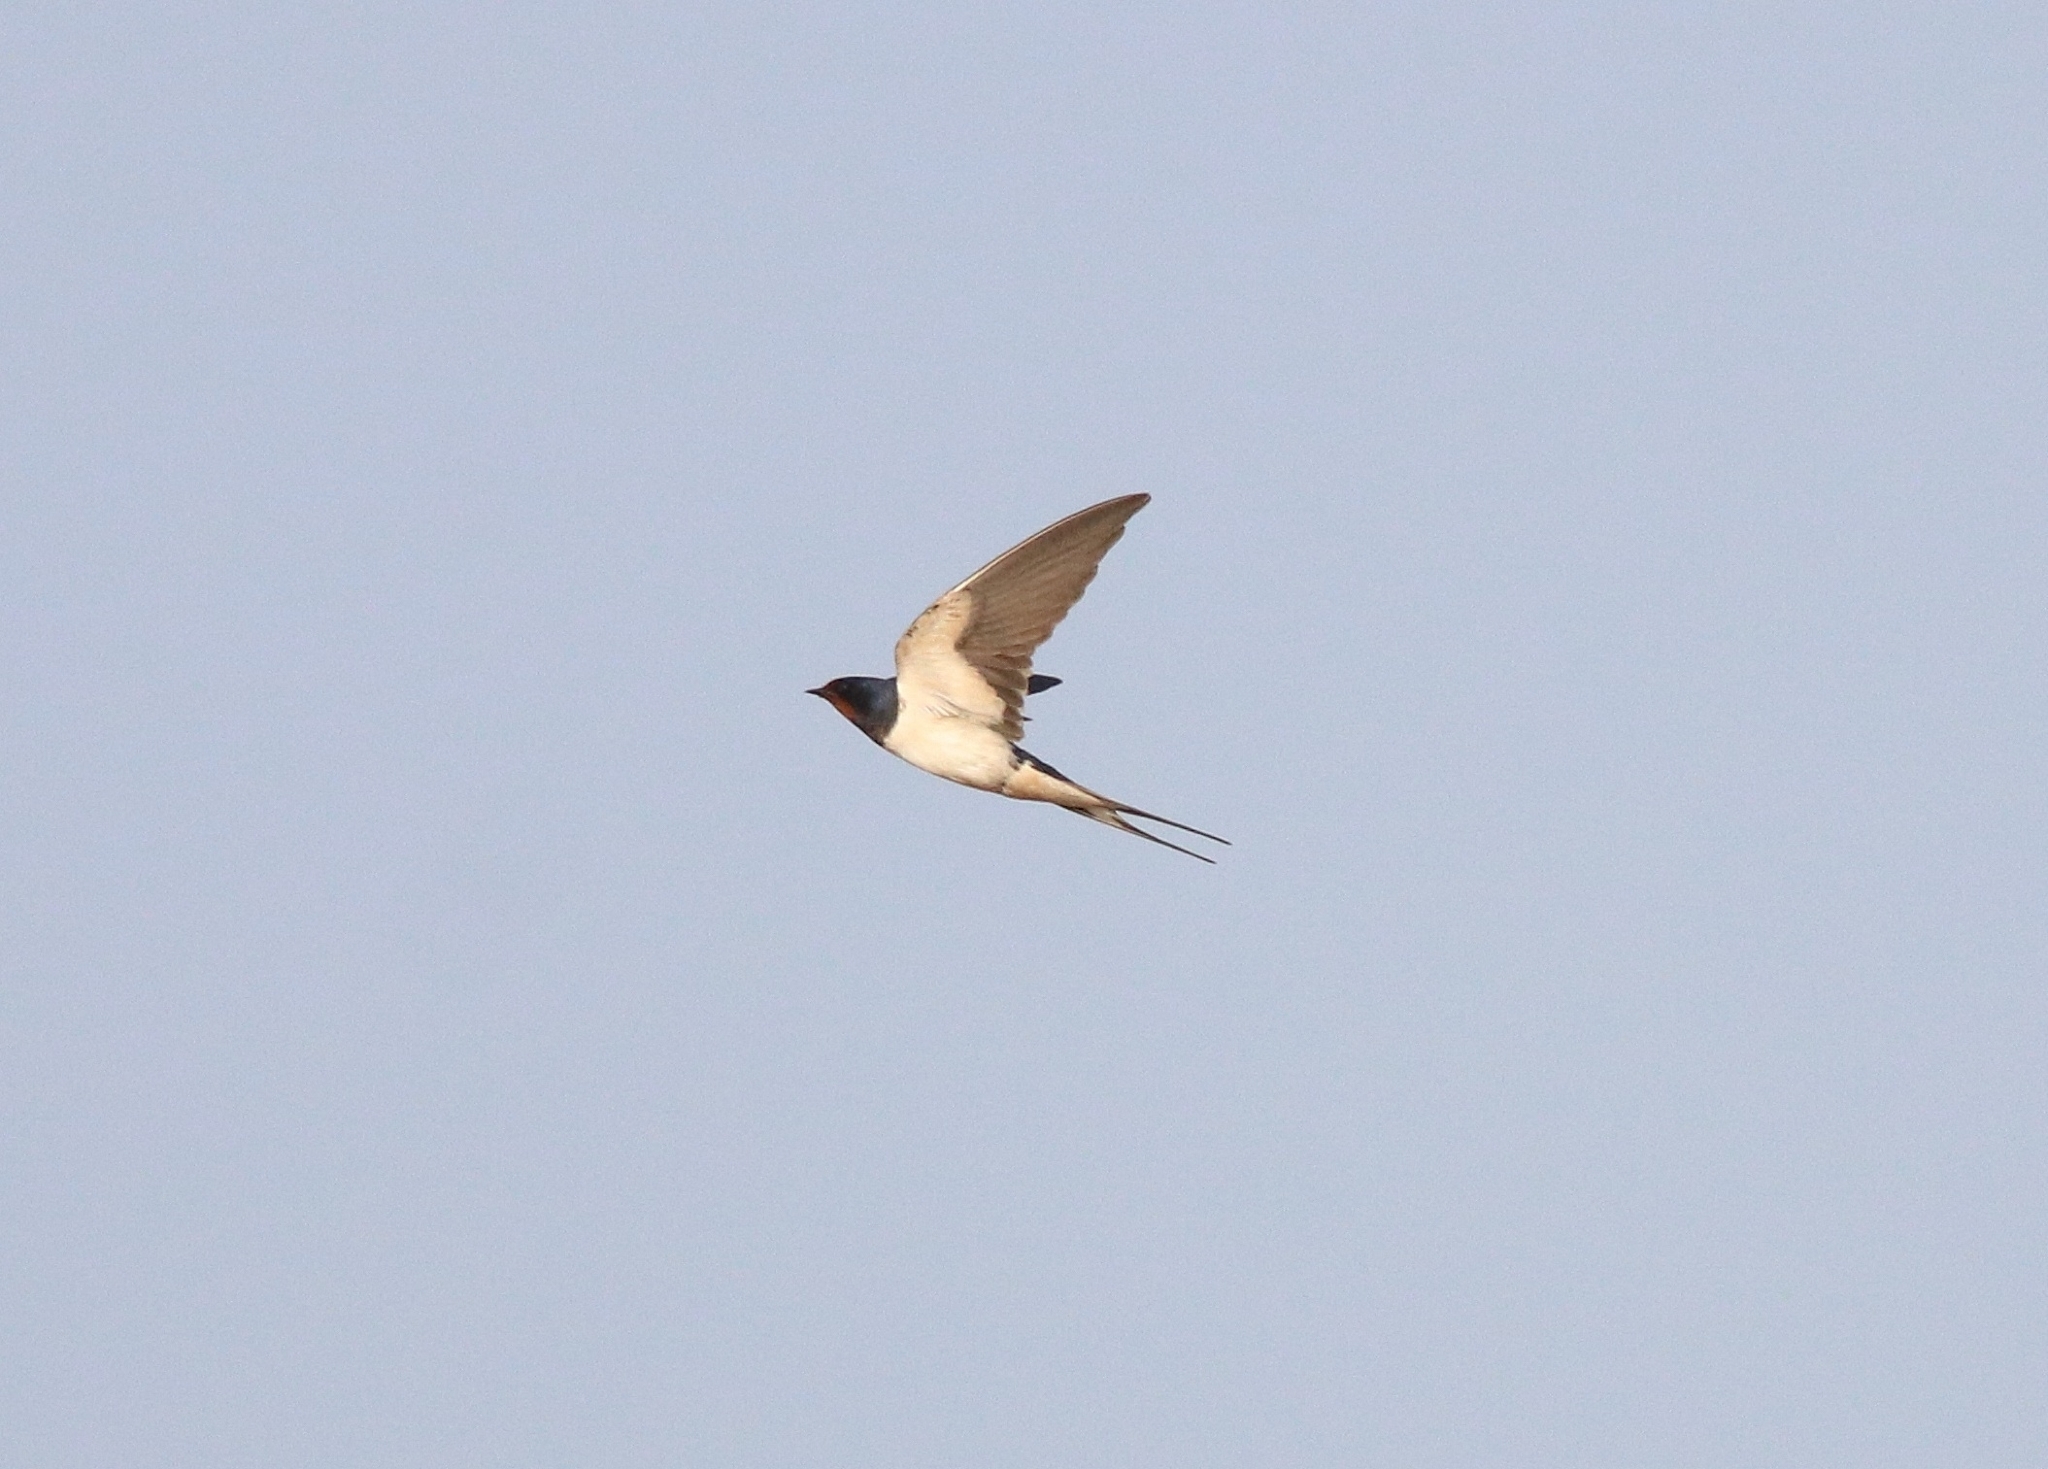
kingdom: Animalia
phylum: Chordata
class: Aves
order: Passeriformes
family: Hirundinidae
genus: Hirundo
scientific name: Hirundo rustica
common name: Barn swallow
